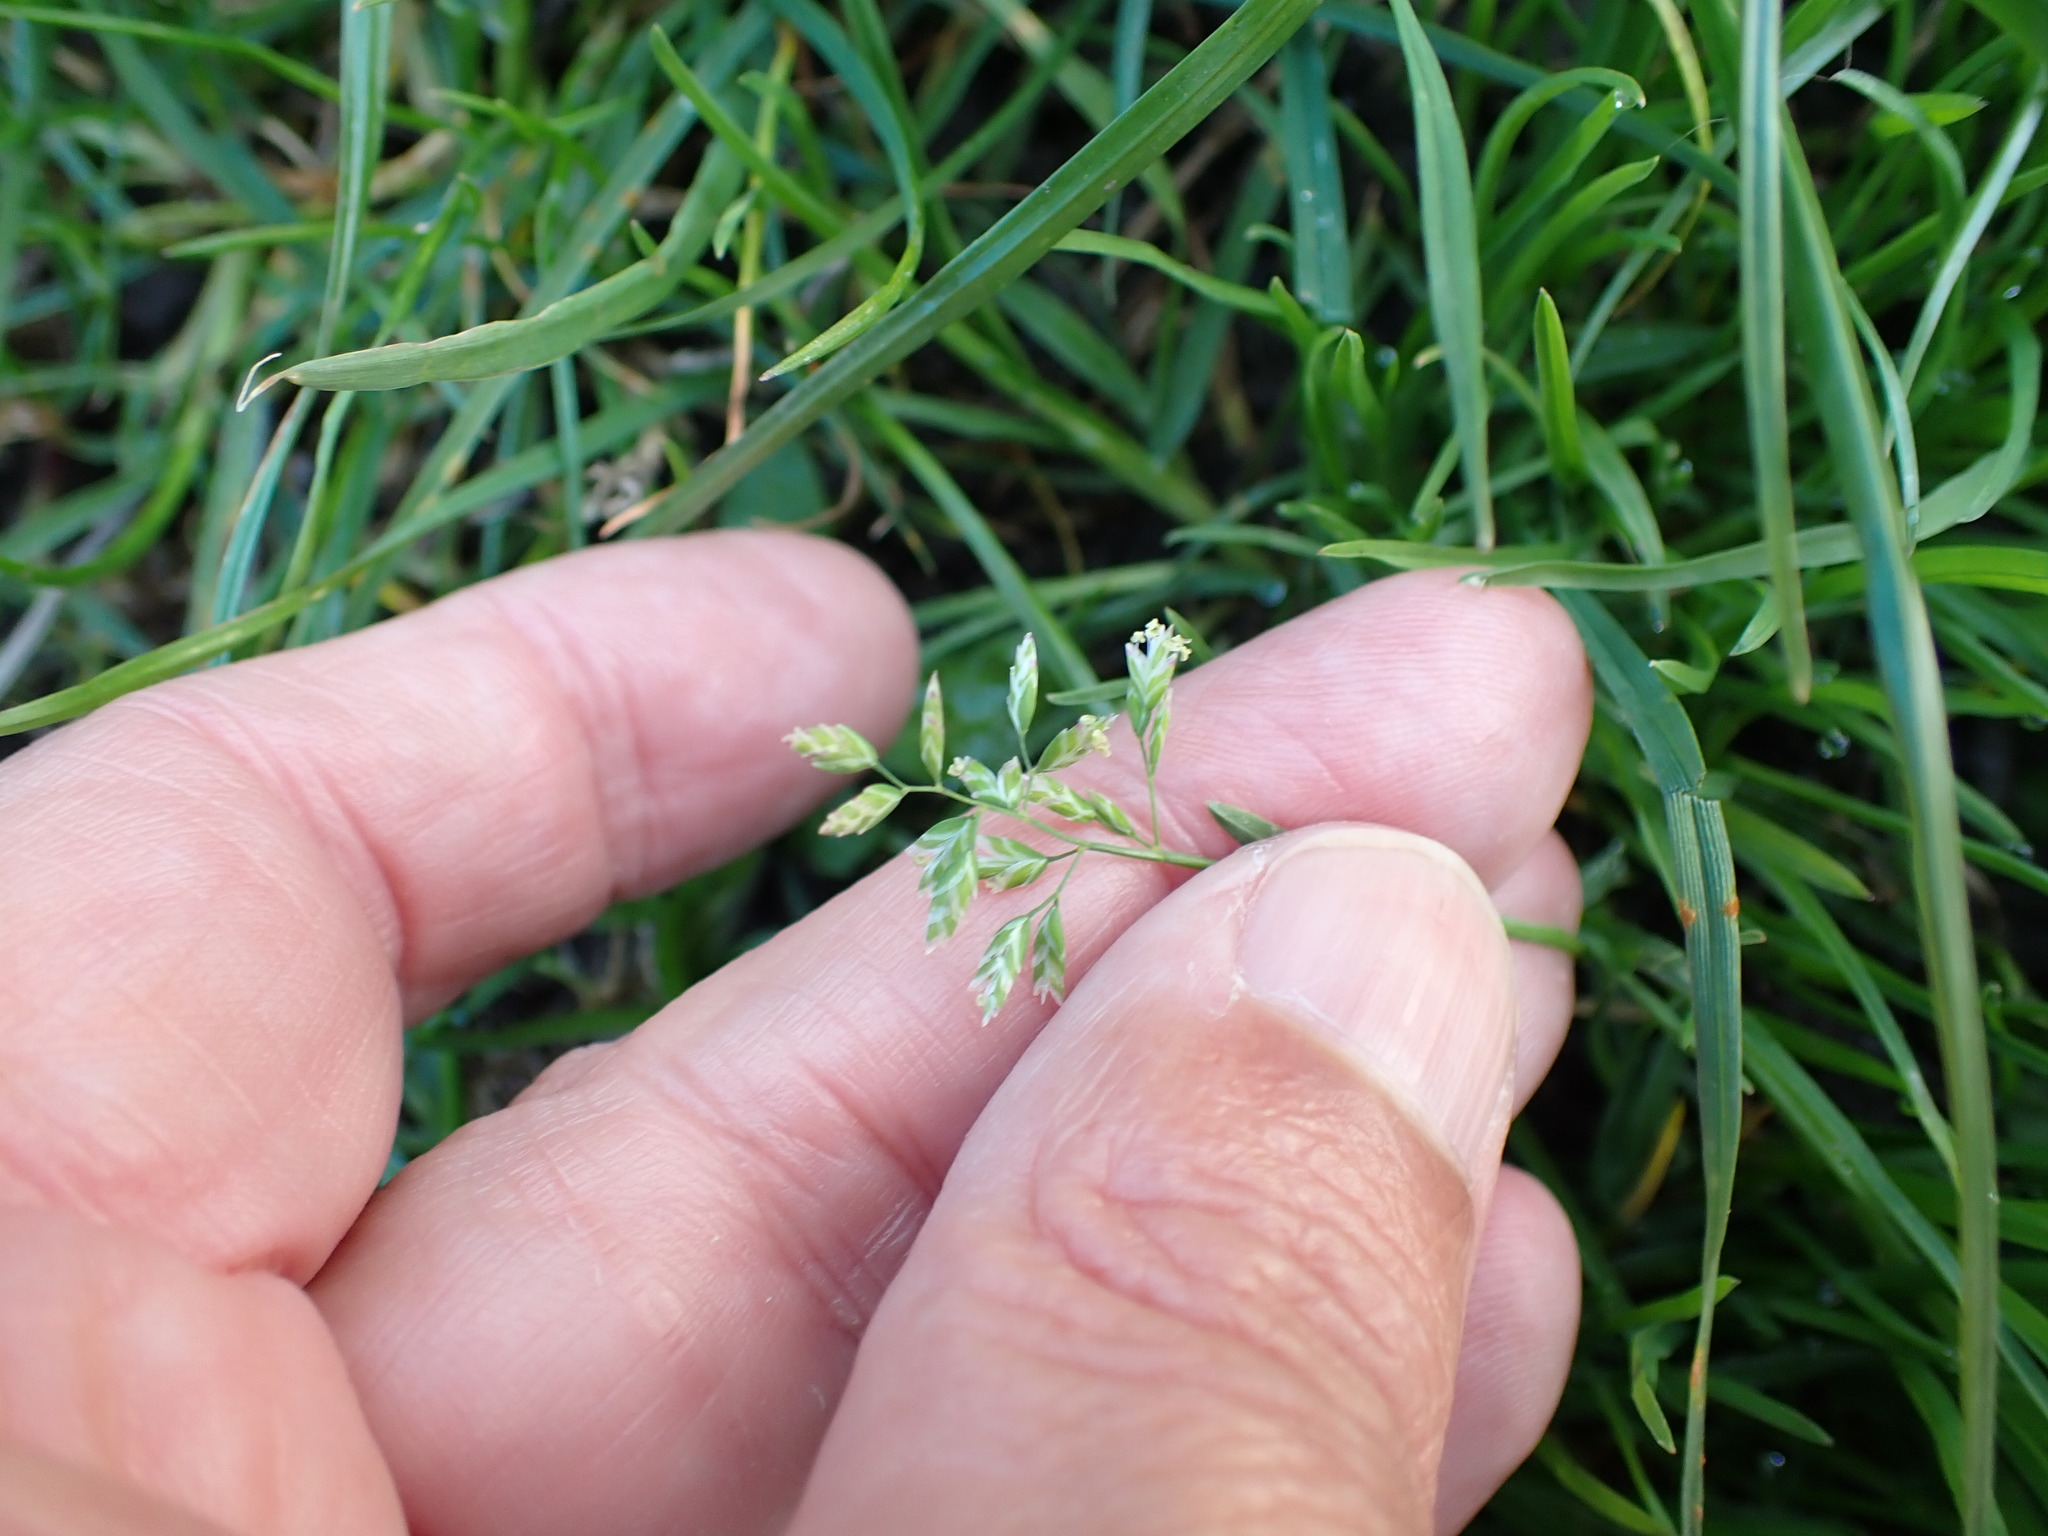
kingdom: Plantae
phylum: Tracheophyta
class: Liliopsida
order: Poales
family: Poaceae
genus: Poa
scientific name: Poa annua
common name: Annual bluegrass
